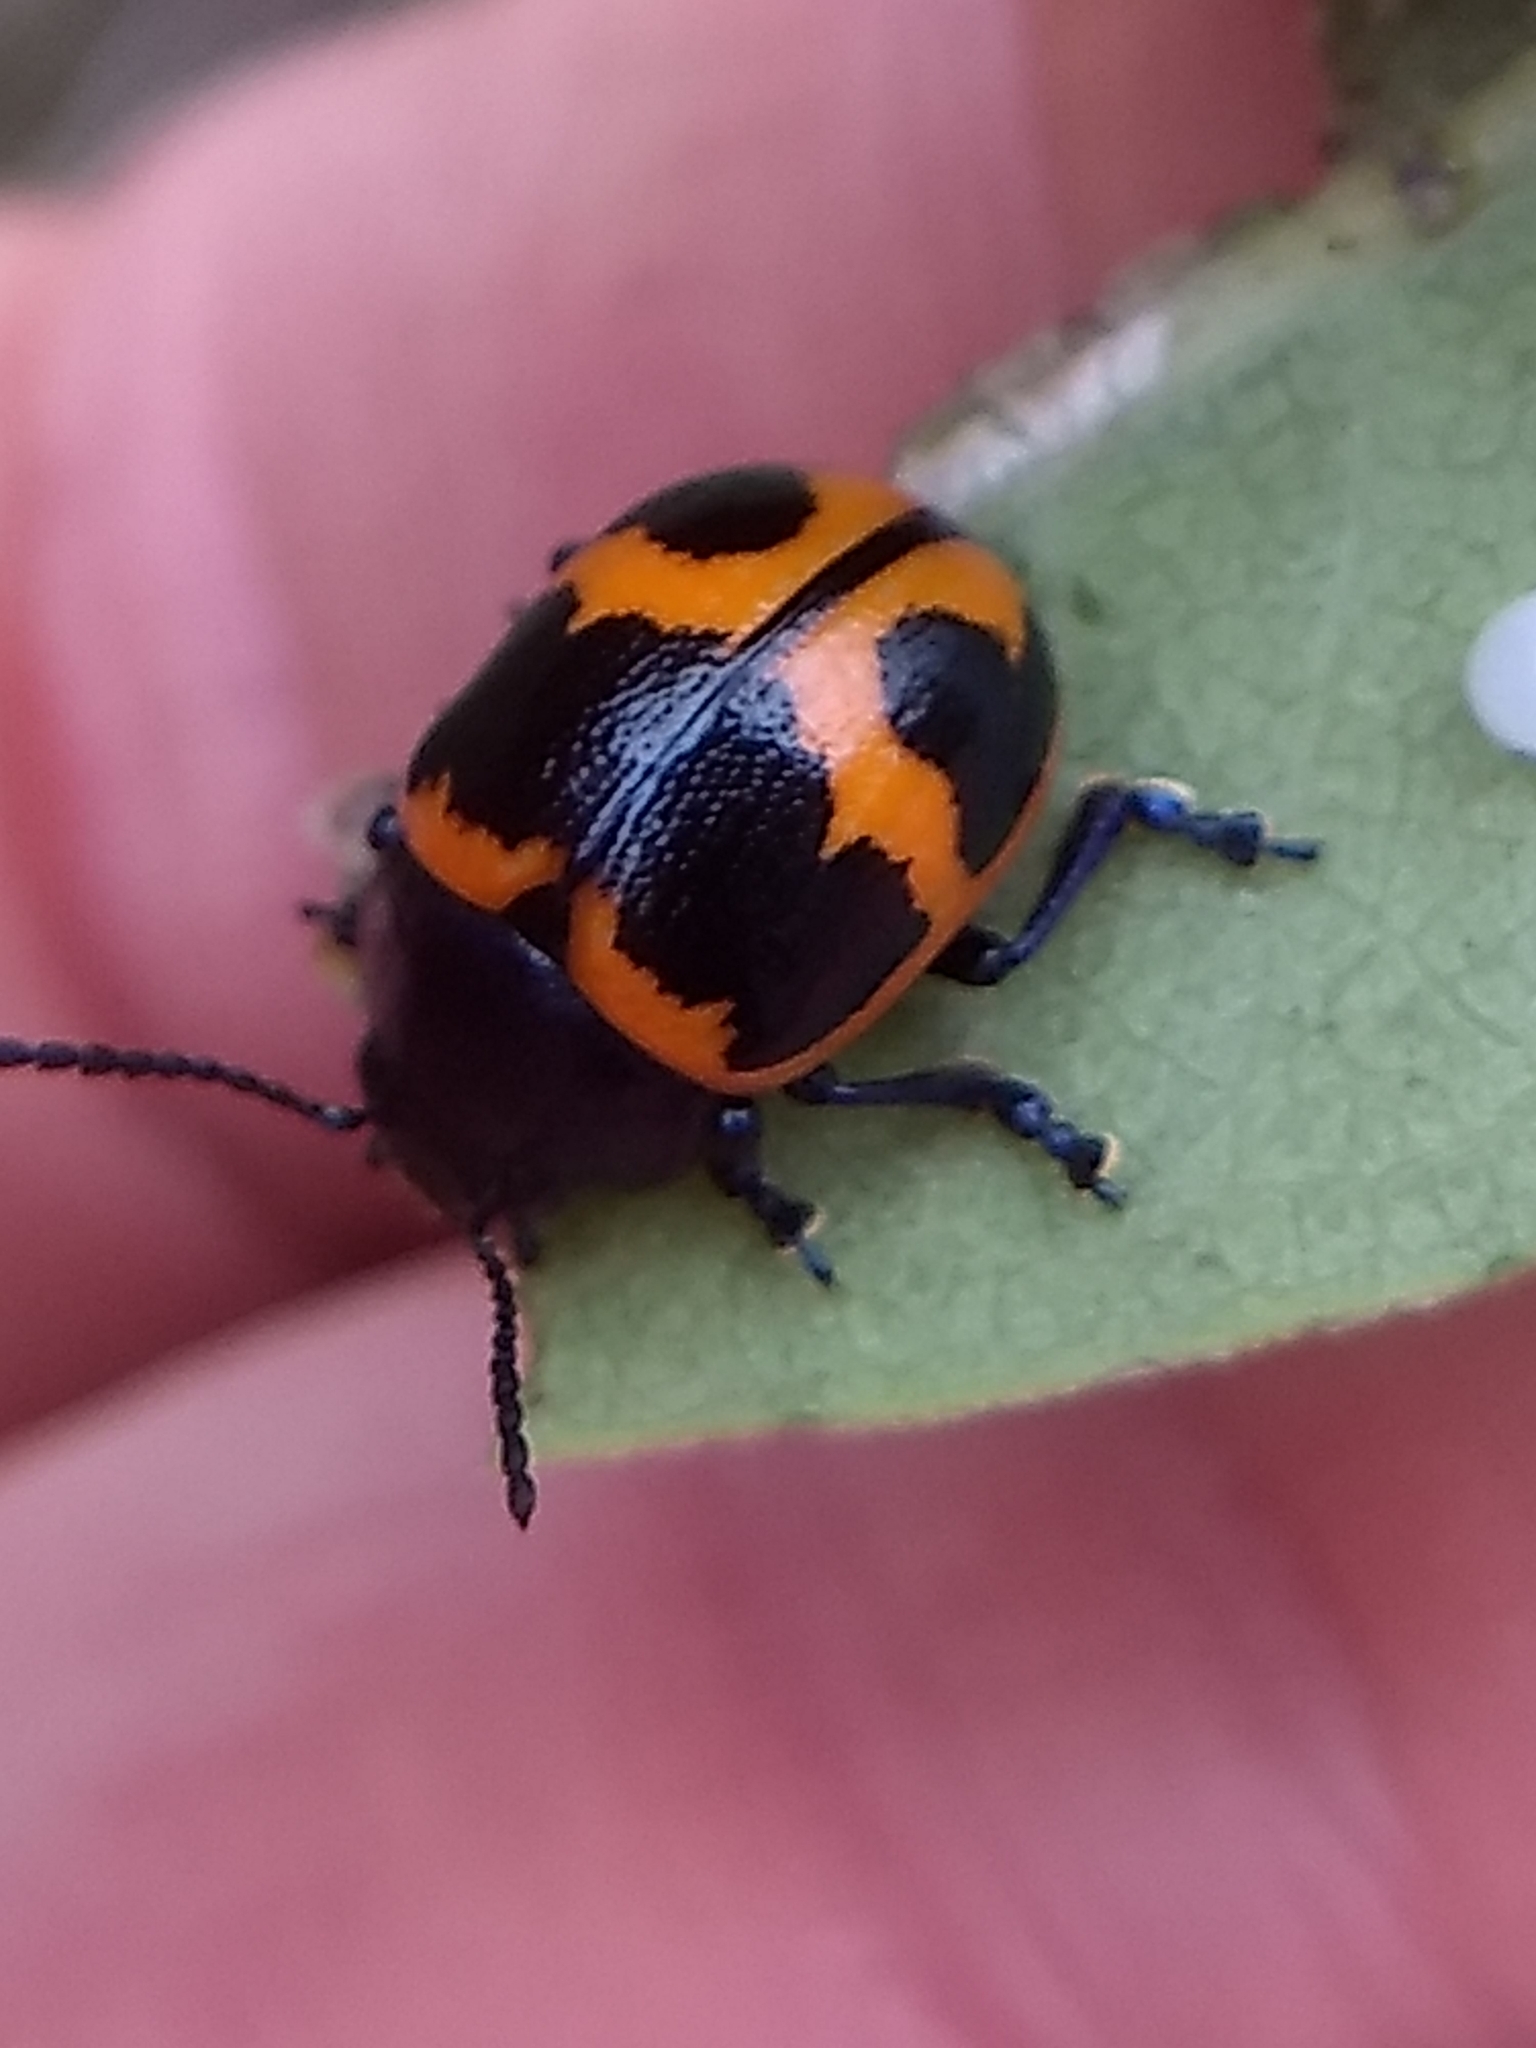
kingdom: Animalia
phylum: Arthropoda
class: Insecta
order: Coleoptera
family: Chrysomelidae
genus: Labidomera
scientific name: Labidomera clivicollis
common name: Swamp milkweed leaf beetle
